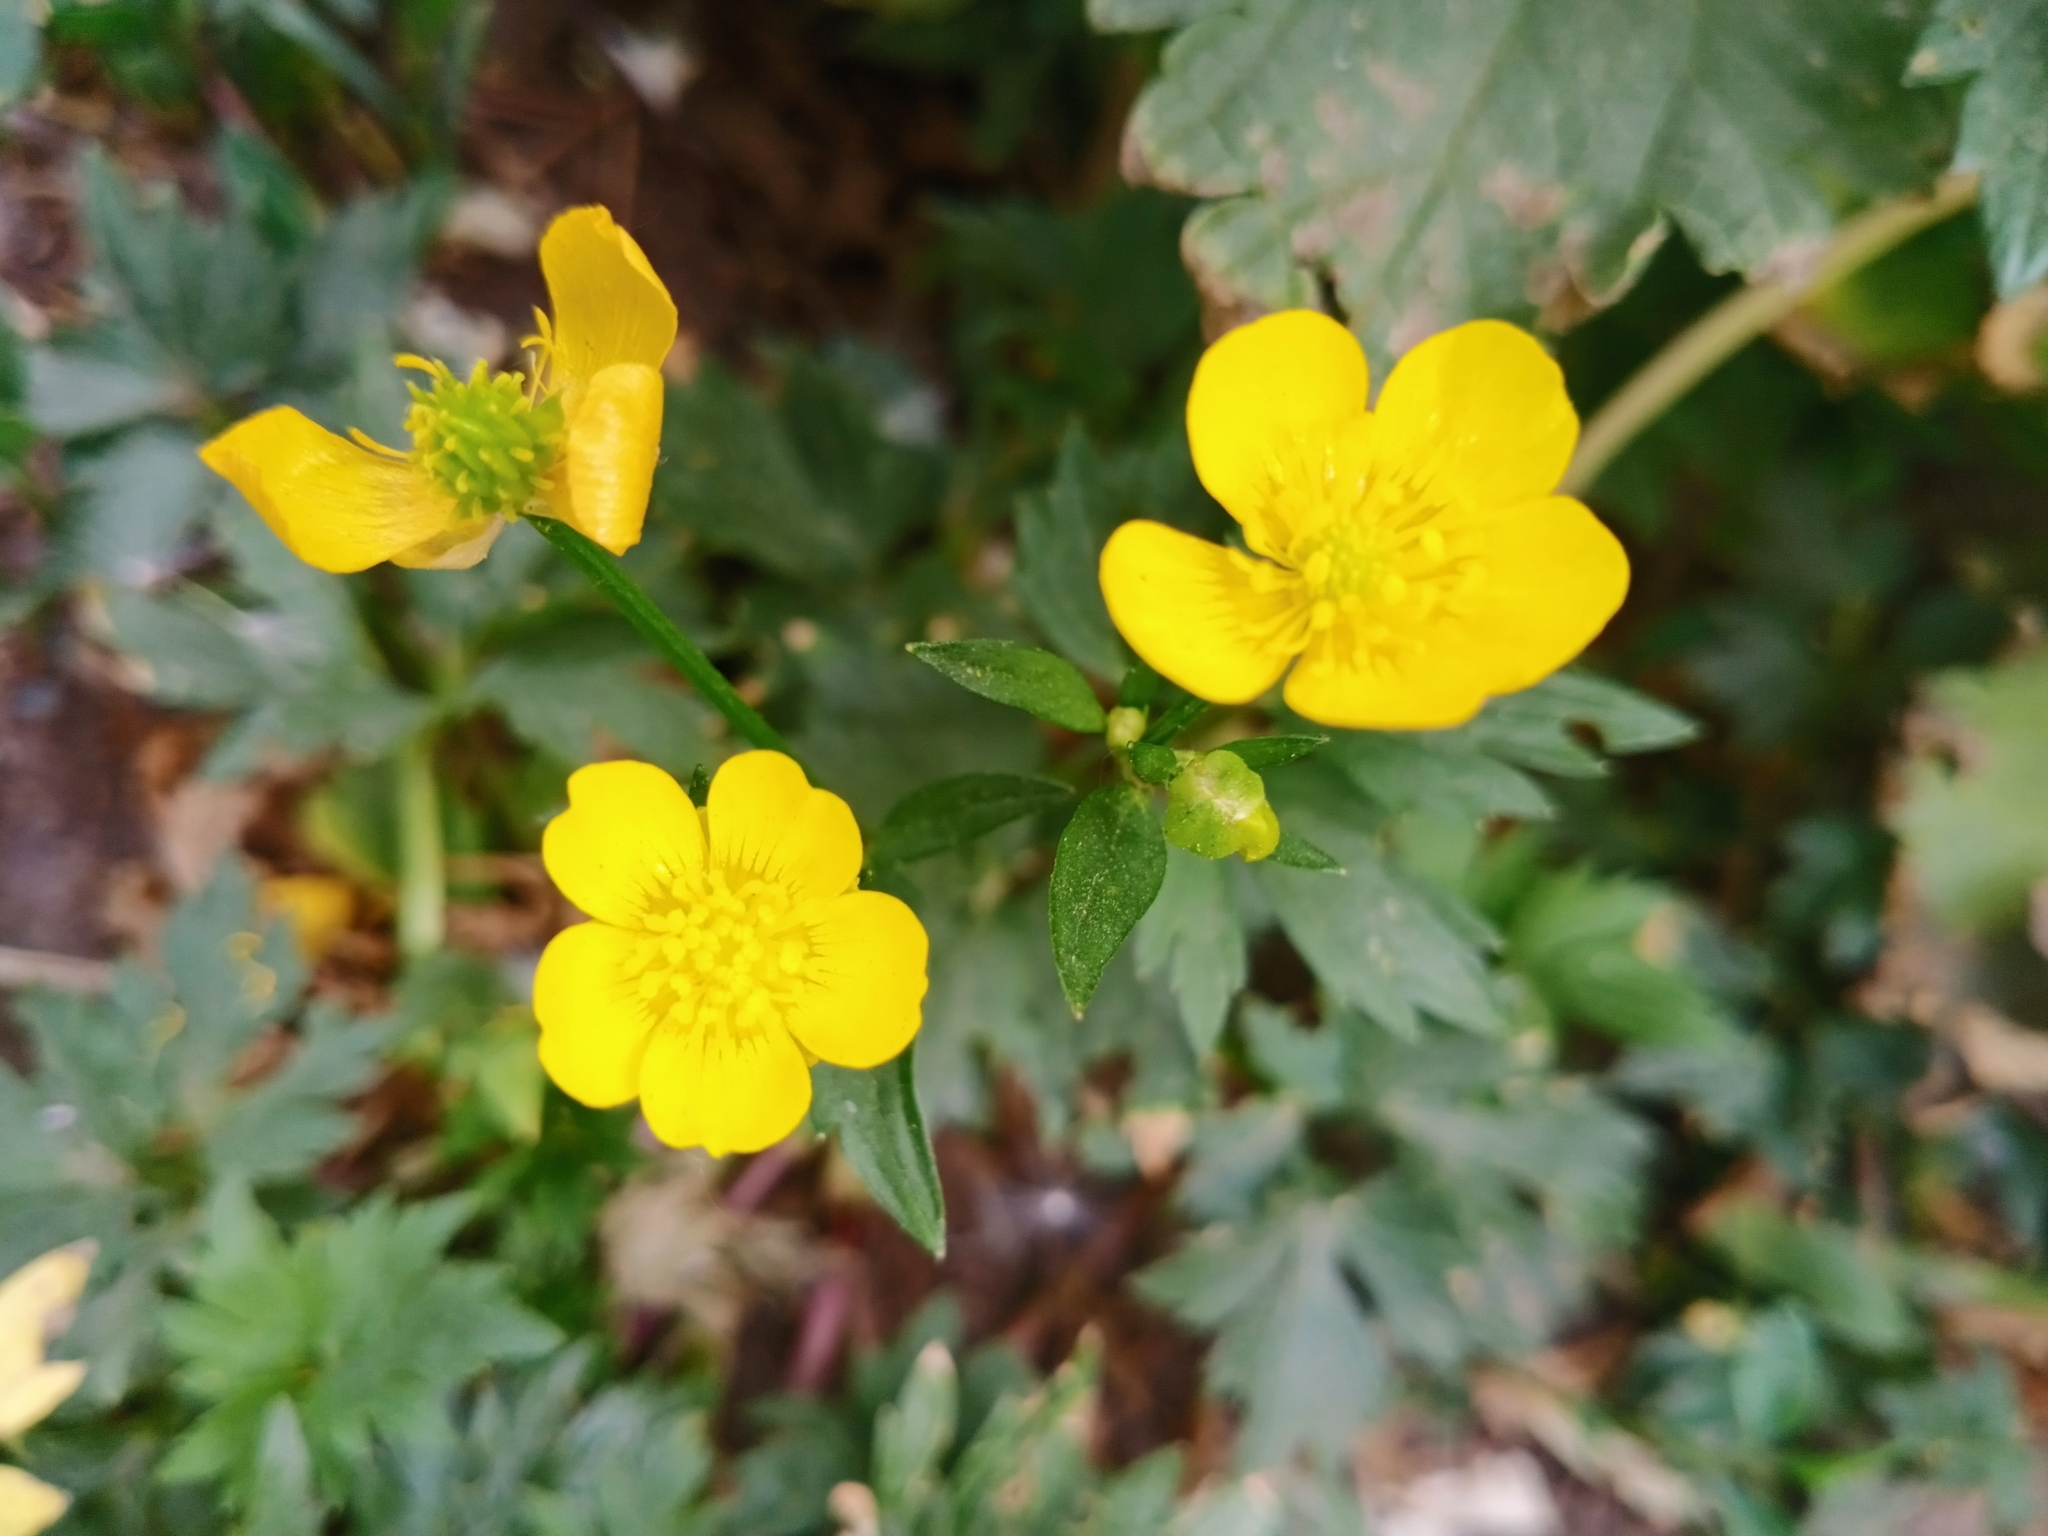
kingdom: Plantae
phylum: Tracheophyta
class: Magnoliopsida
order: Ranunculales
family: Ranunculaceae
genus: Ranunculus
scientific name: Ranunculus repens
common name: Creeping buttercup
